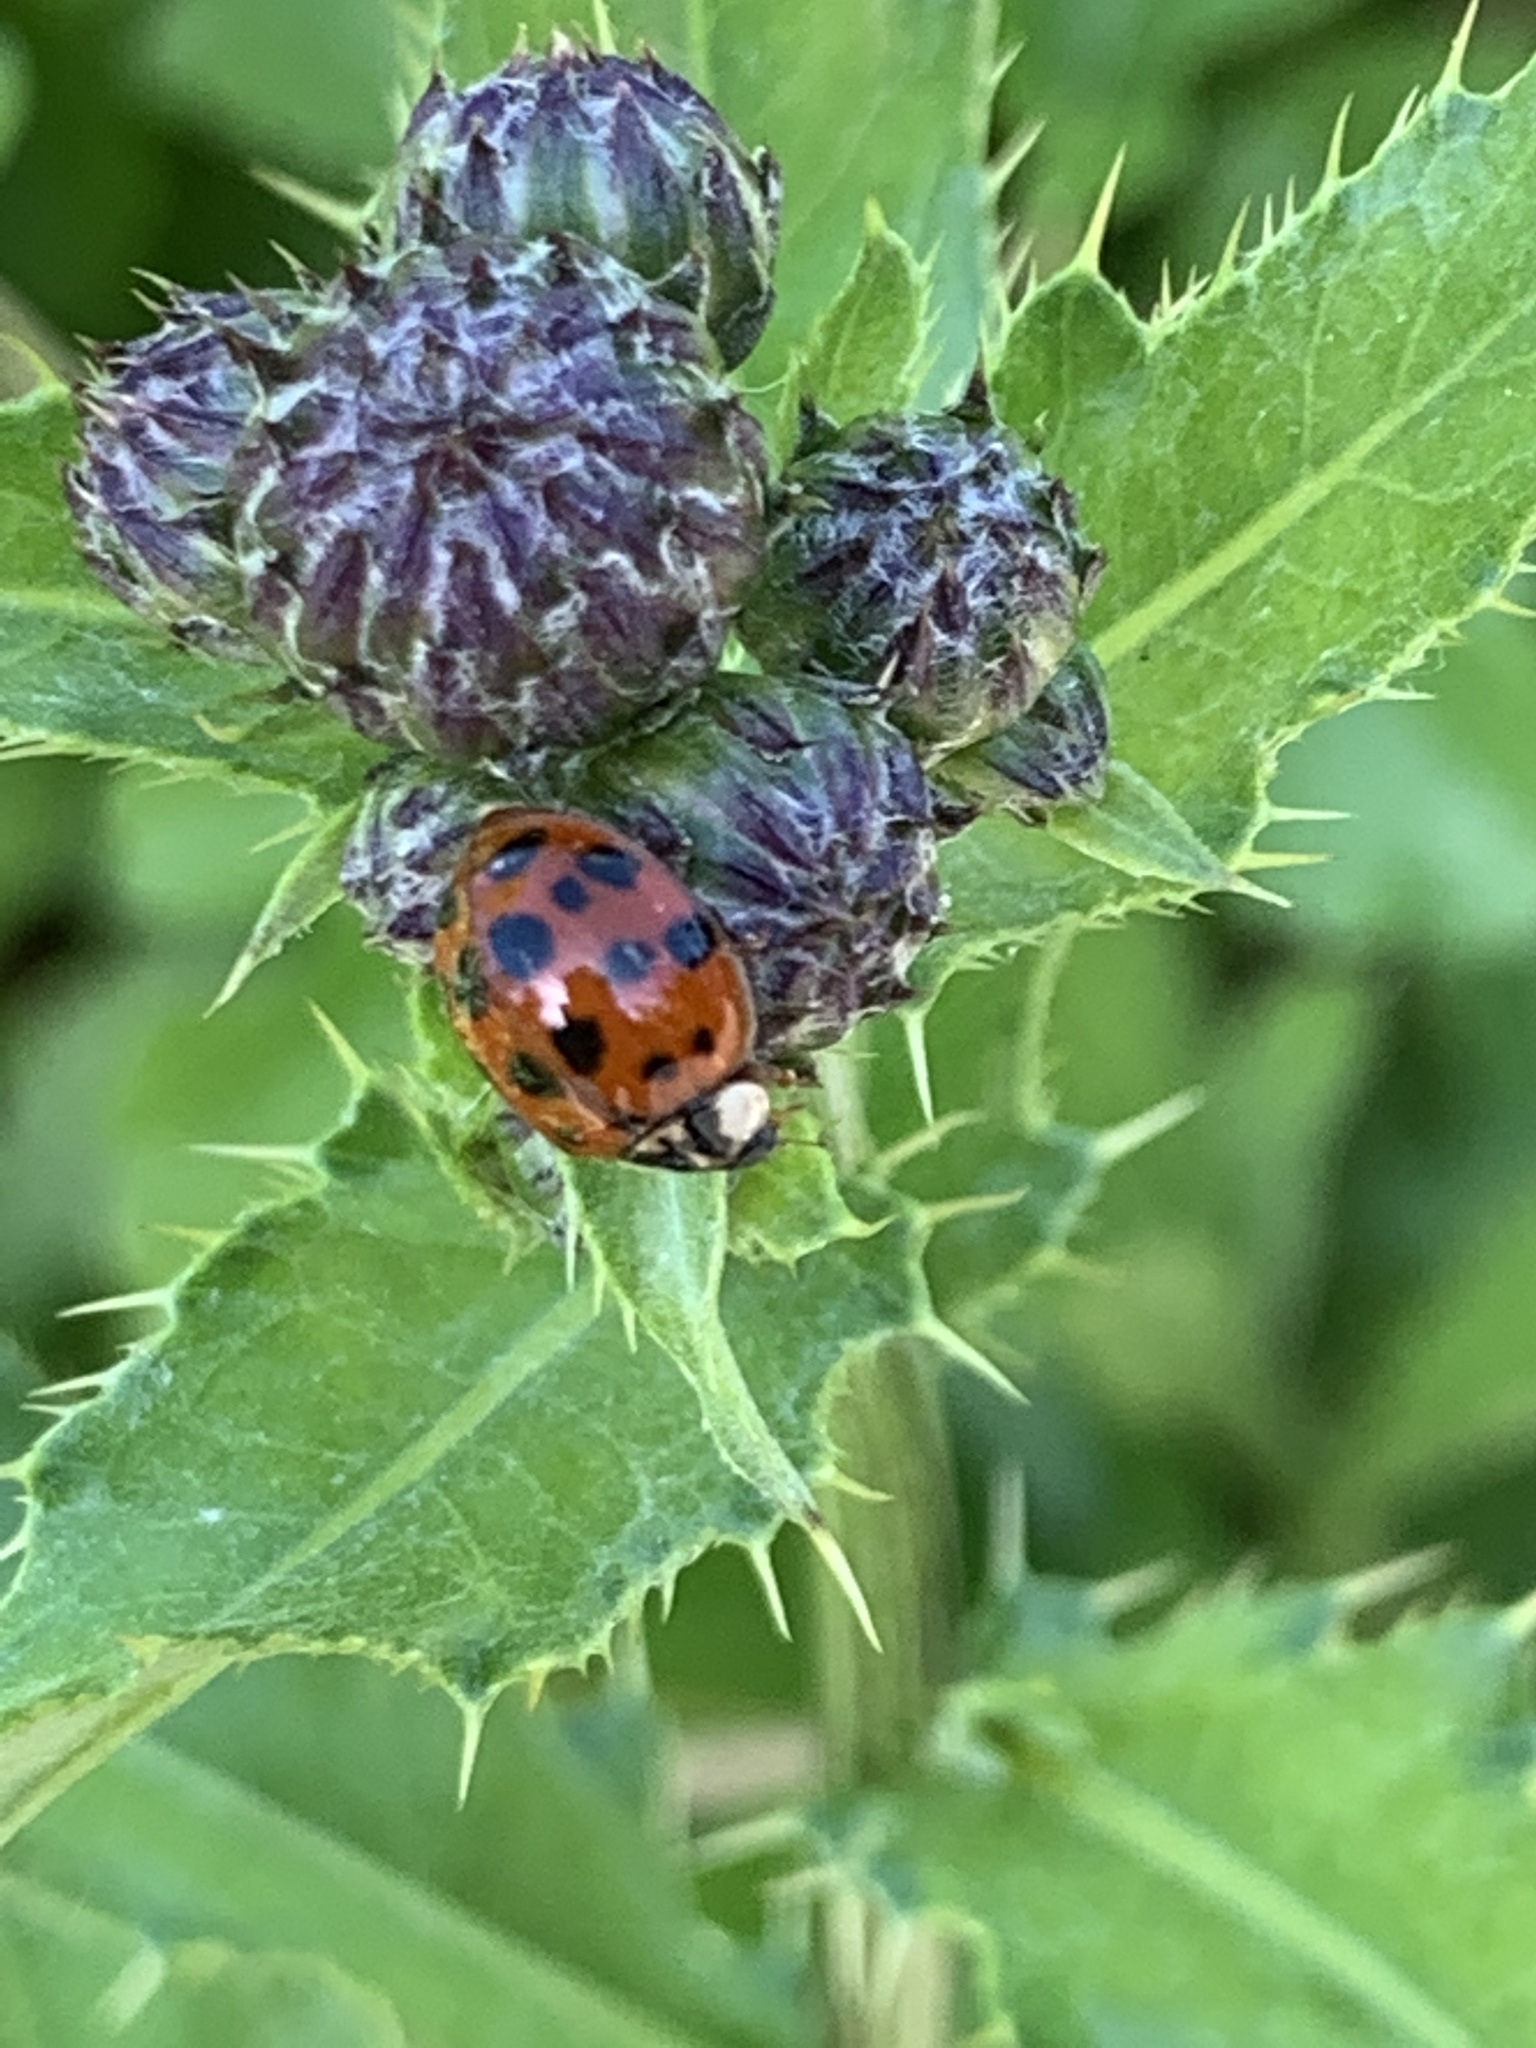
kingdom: Animalia
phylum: Arthropoda
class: Insecta
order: Coleoptera
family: Coccinellidae
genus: Harmonia
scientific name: Harmonia axyridis
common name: Harlequin ladybird
